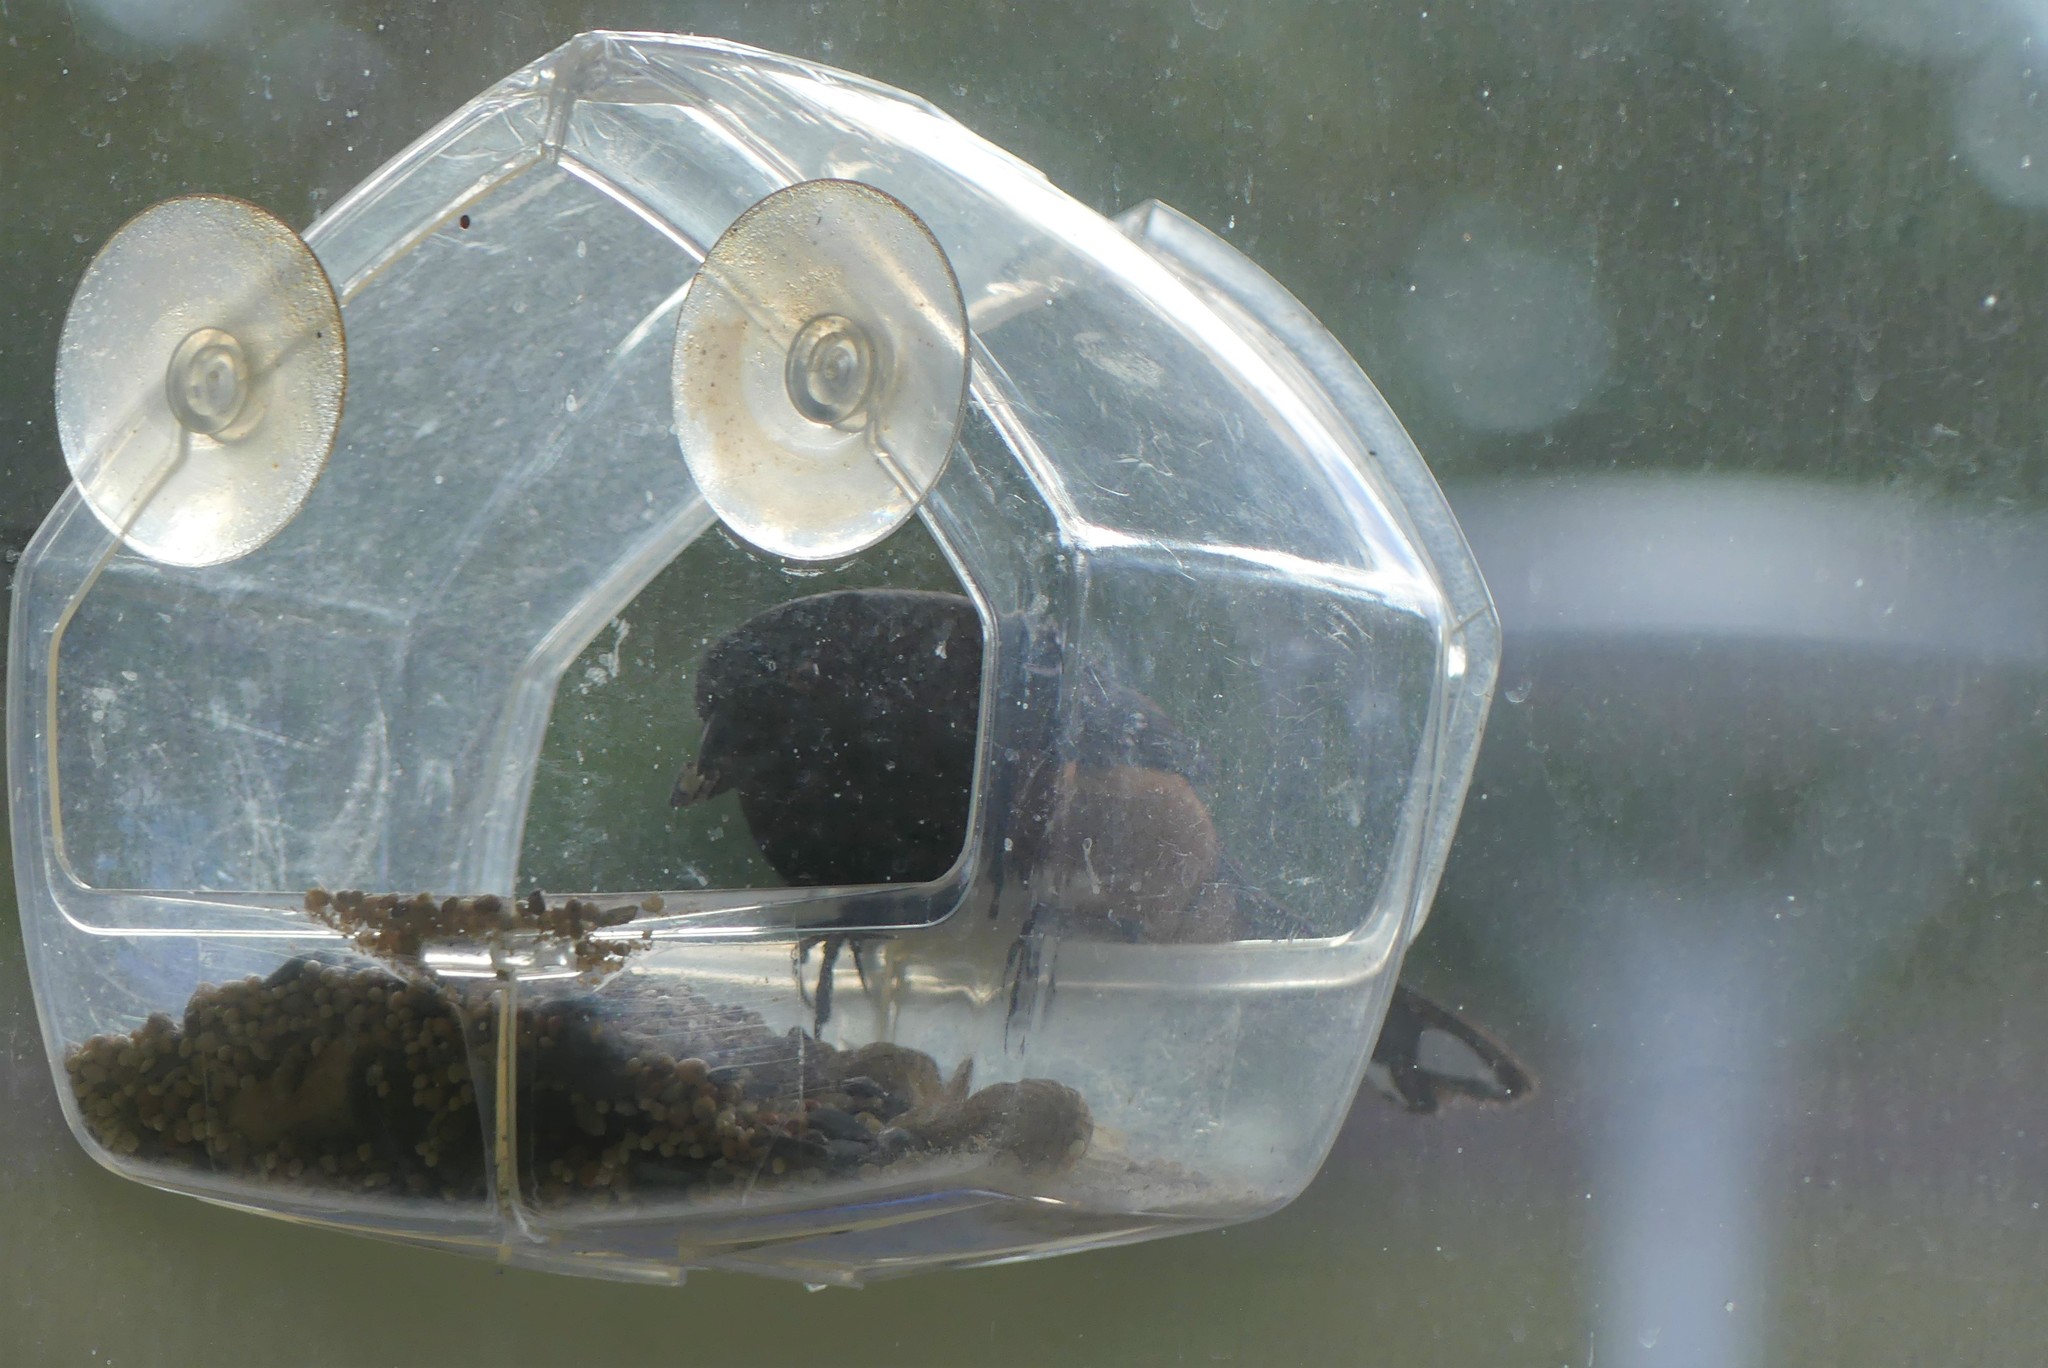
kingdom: Animalia
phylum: Chordata
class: Aves
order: Passeriformes
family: Passerellidae
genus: Pipilo
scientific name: Pipilo maculatus
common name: Spotted towhee
